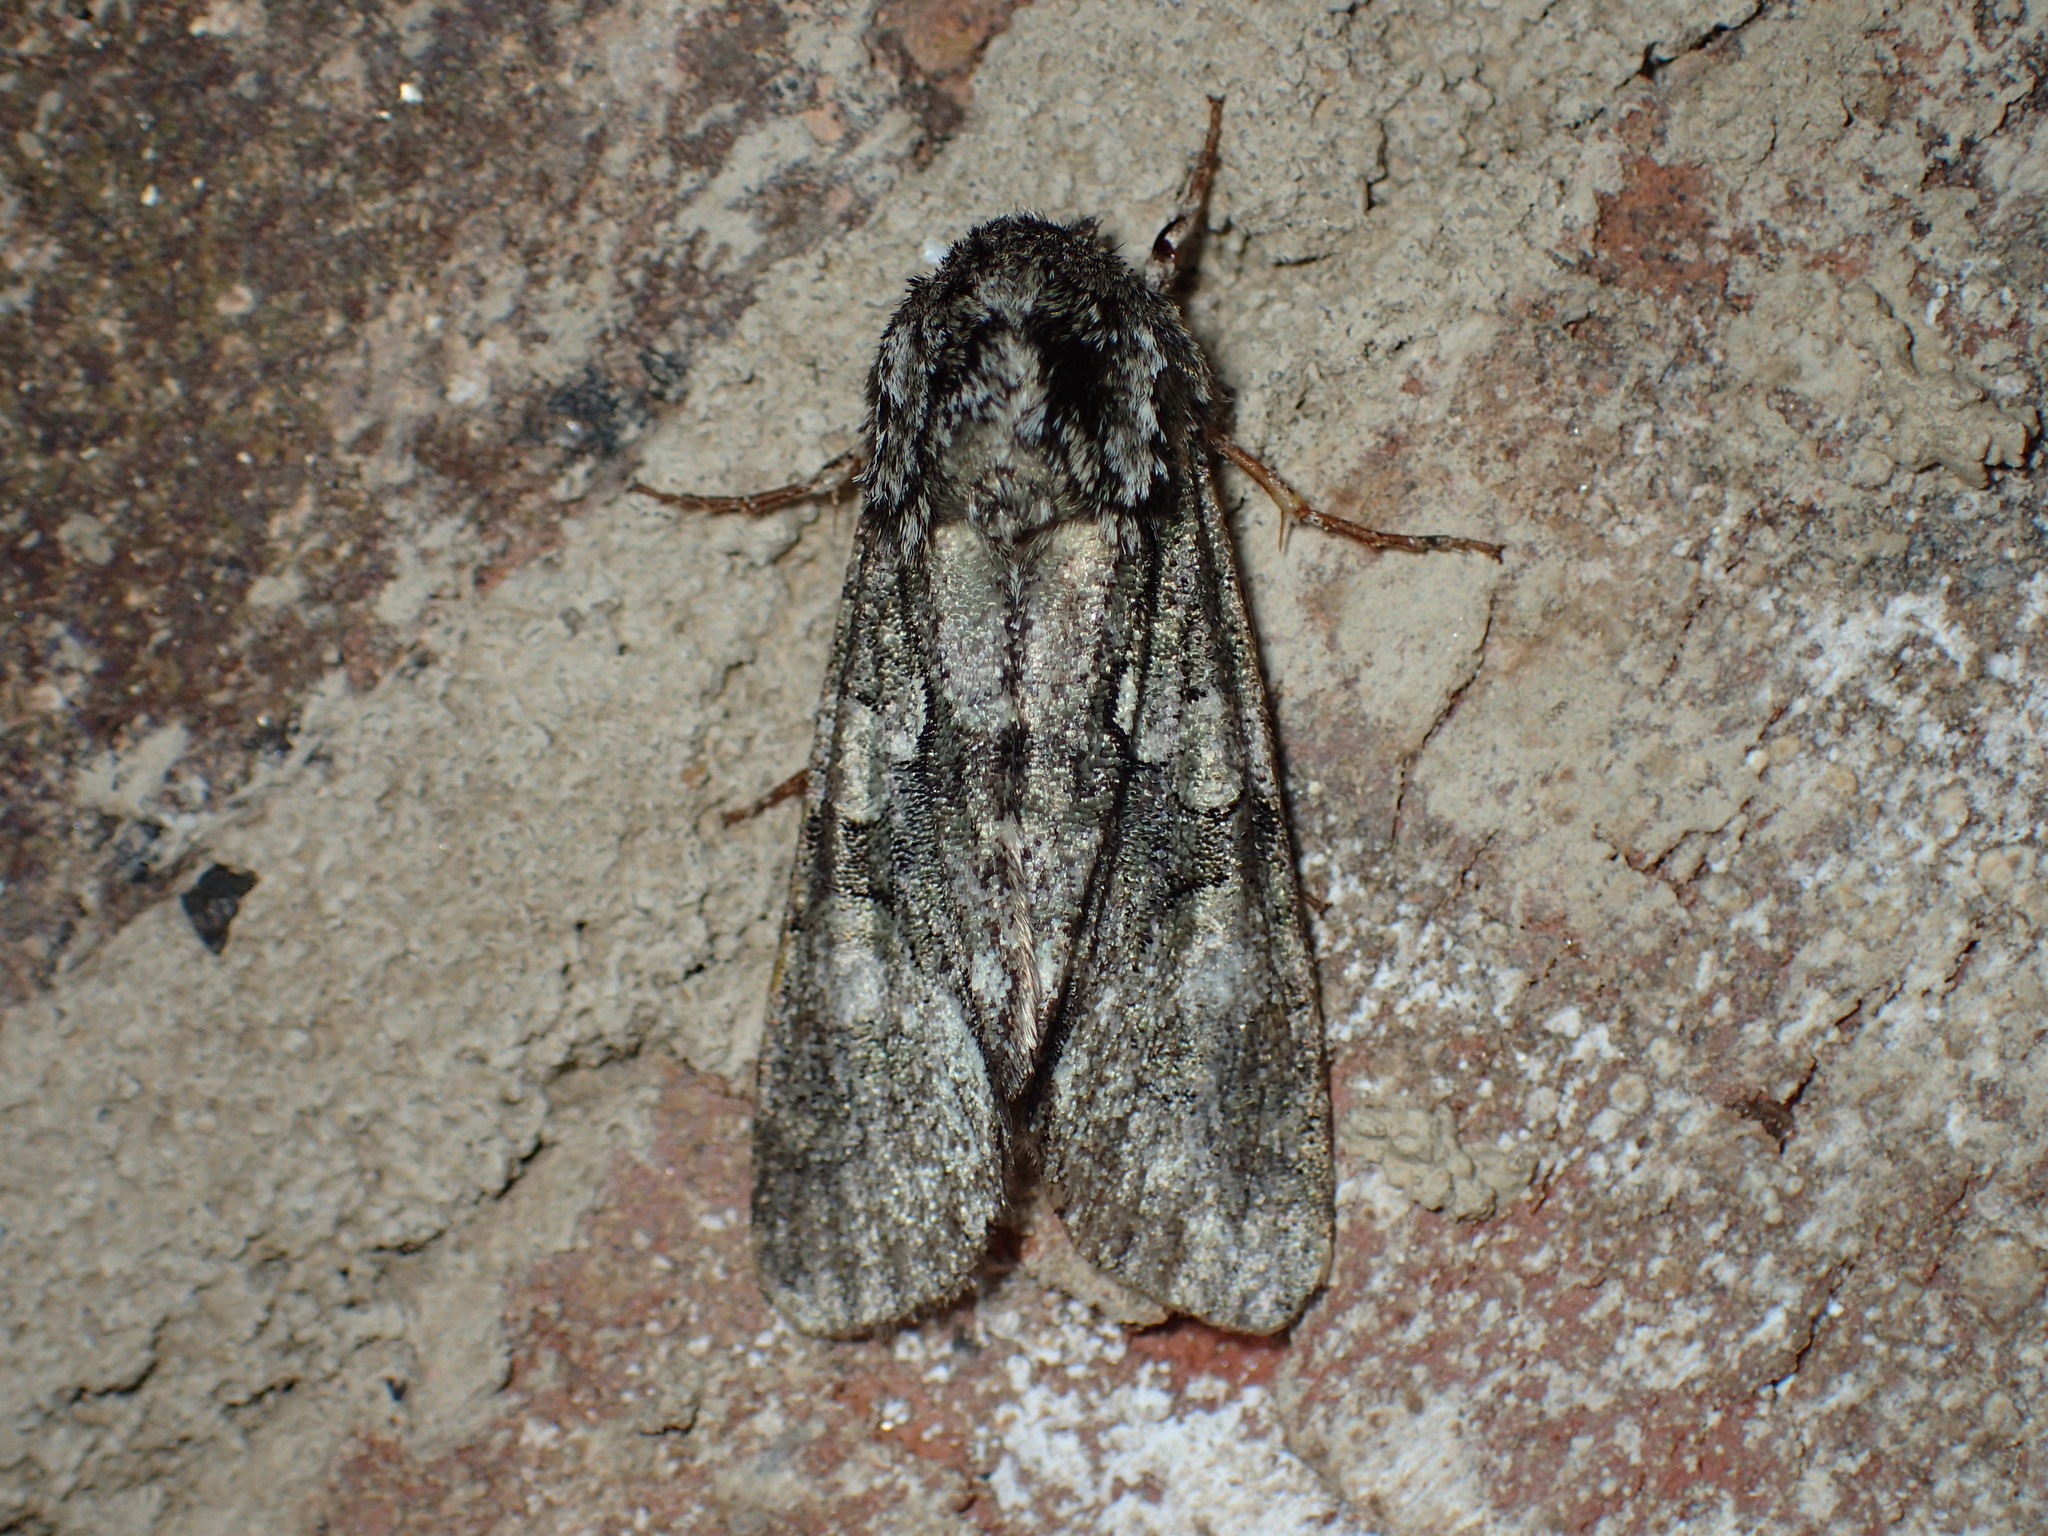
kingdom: Animalia
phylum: Arthropoda
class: Insecta
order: Lepidoptera
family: Noctuidae
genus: Psaphida
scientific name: Psaphida resumens
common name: Figure-eight sallow
